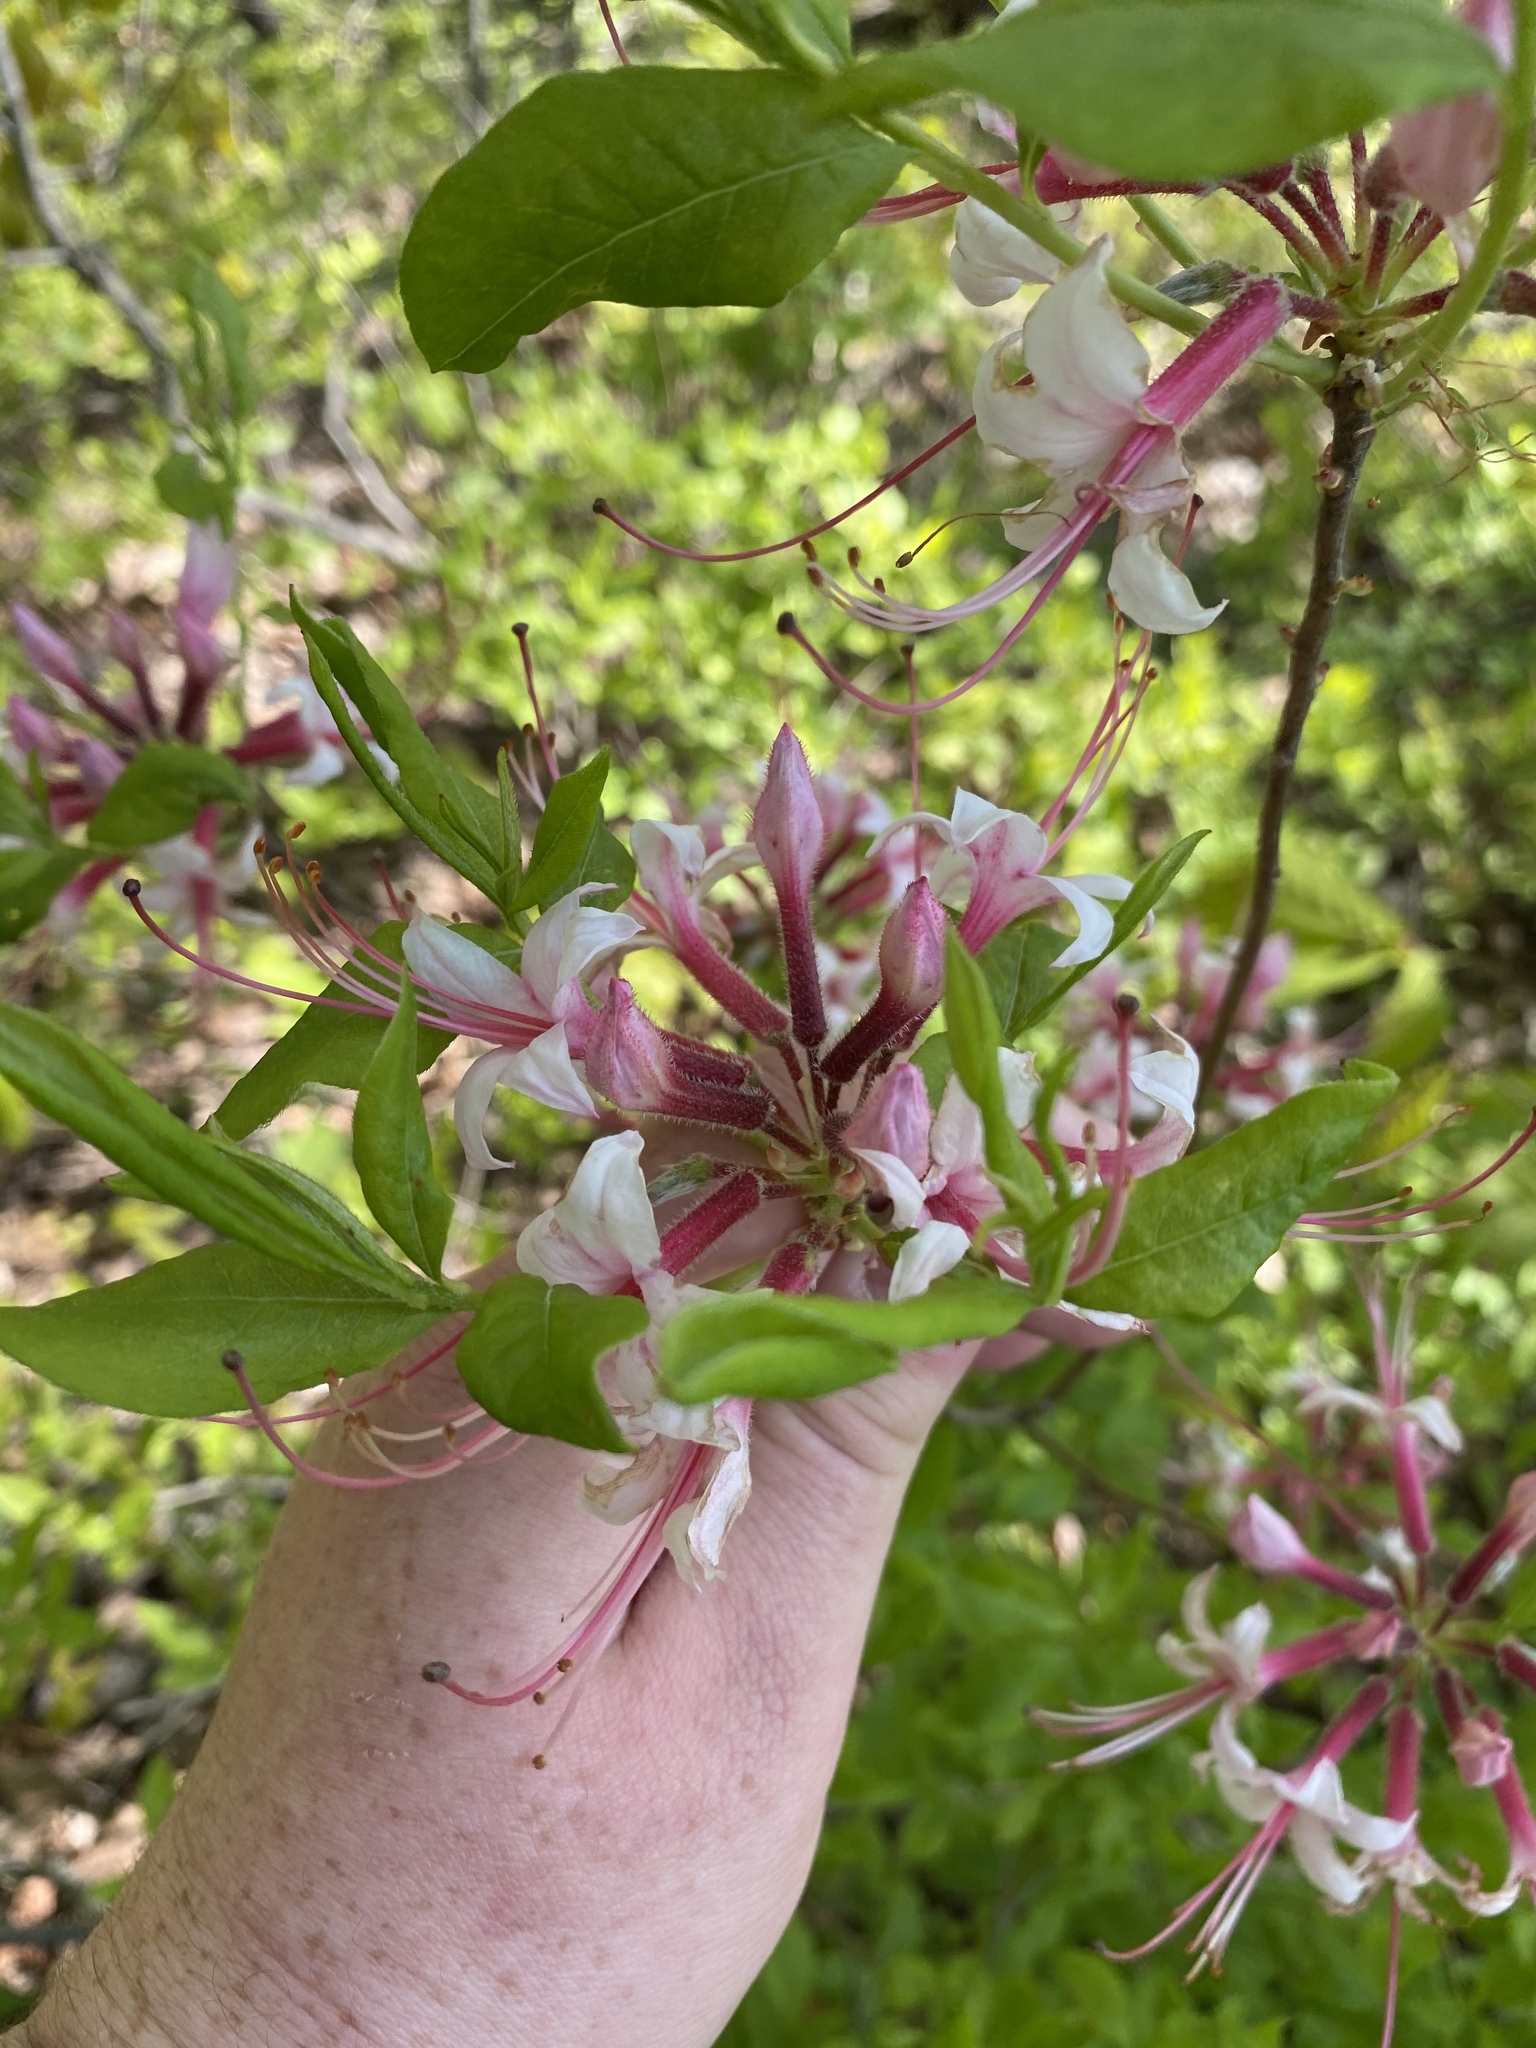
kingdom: Plantae
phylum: Tracheophyta
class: Magnoliopsida
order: Ericales
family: Ericaceae
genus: Rhododendron
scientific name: Rhododendron periclymenoides
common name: Election-pink
